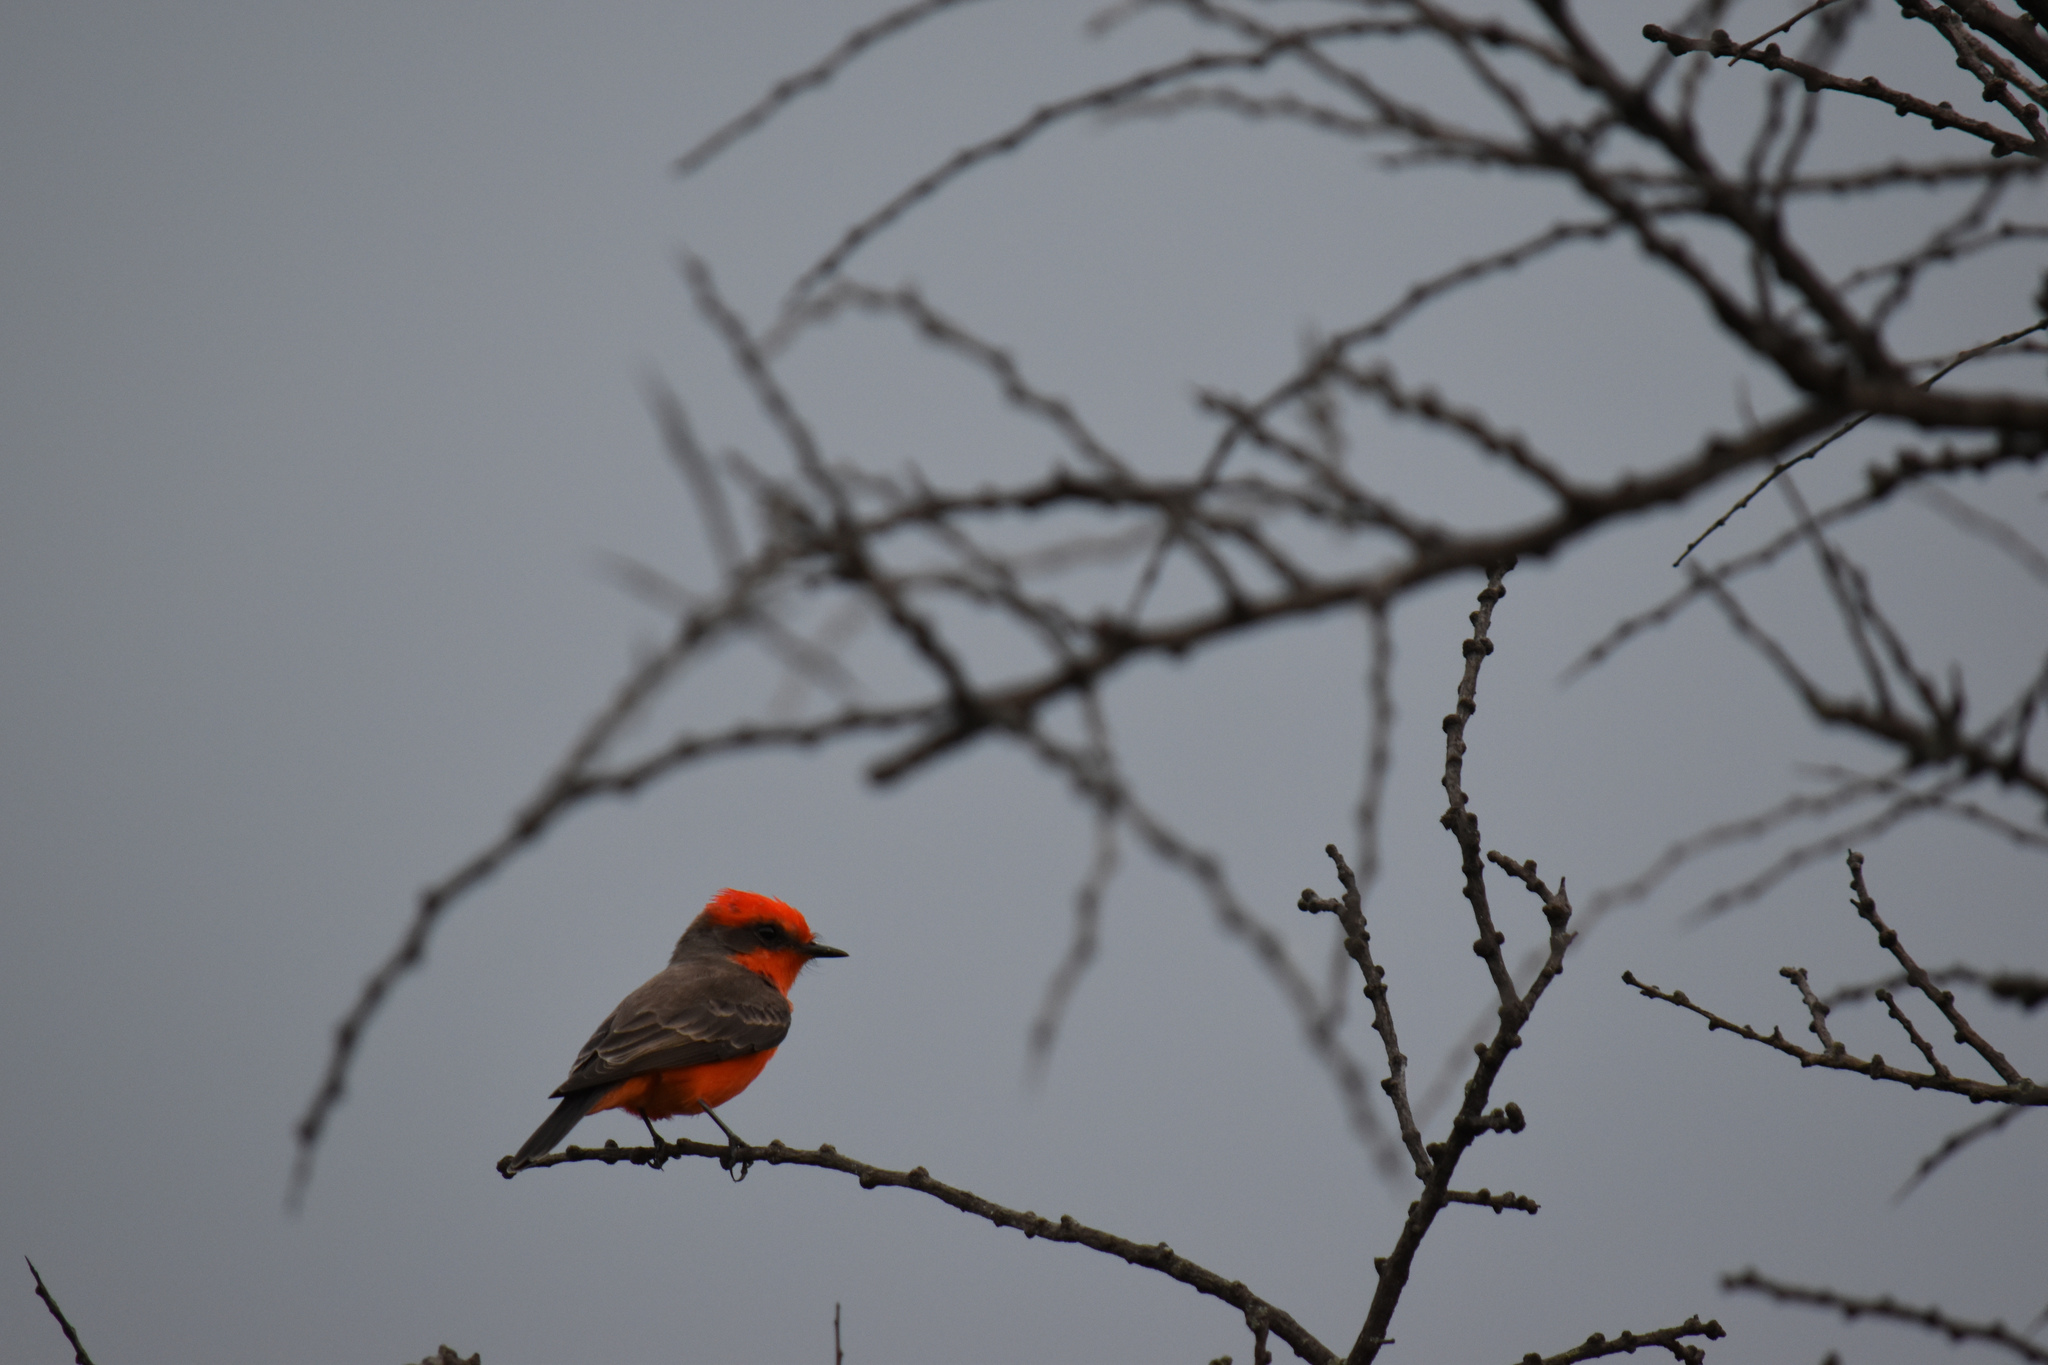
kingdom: Animalia
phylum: Chordata
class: Aves
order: Passeriformes
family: Tyrannidae
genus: Pyrocephalus
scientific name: Pyrocephalus rubinus
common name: Vermilion flycatcher
